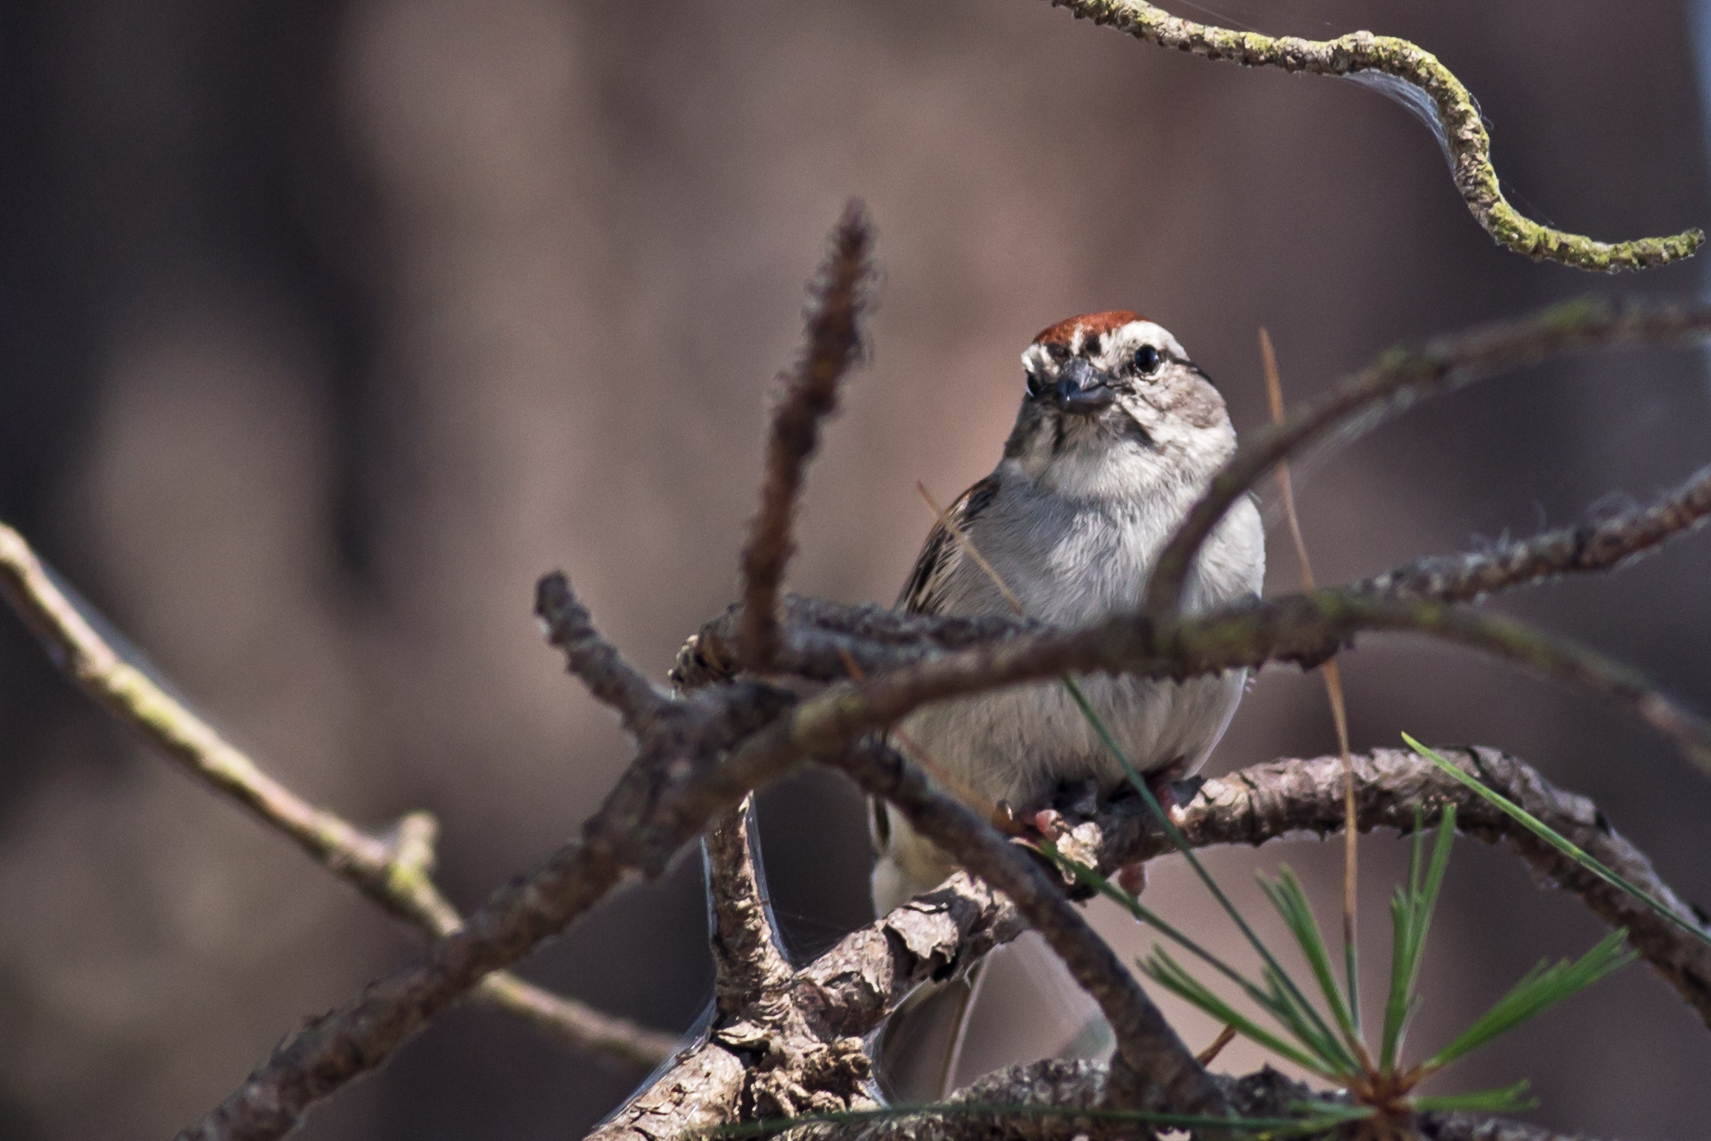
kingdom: Animalia
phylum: Chordata
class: Aves
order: Passeriformes
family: Passerellidae
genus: Spizella
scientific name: Spizella passerina
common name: Chipping sparrow
